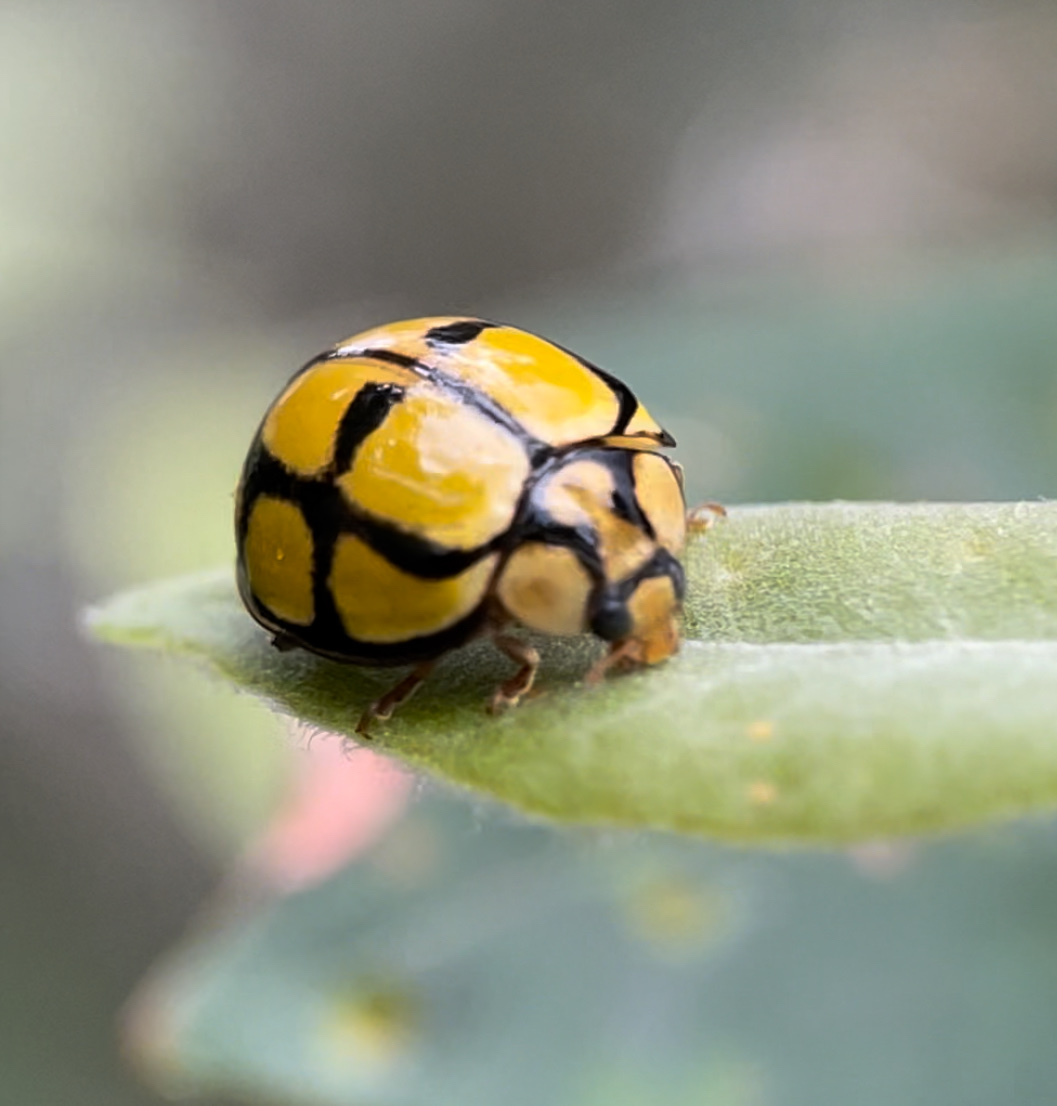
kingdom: Animalia
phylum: Arthropoda
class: Insecta
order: Coleoptera
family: Coccinellidae
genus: Harmonia
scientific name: Harmonia
